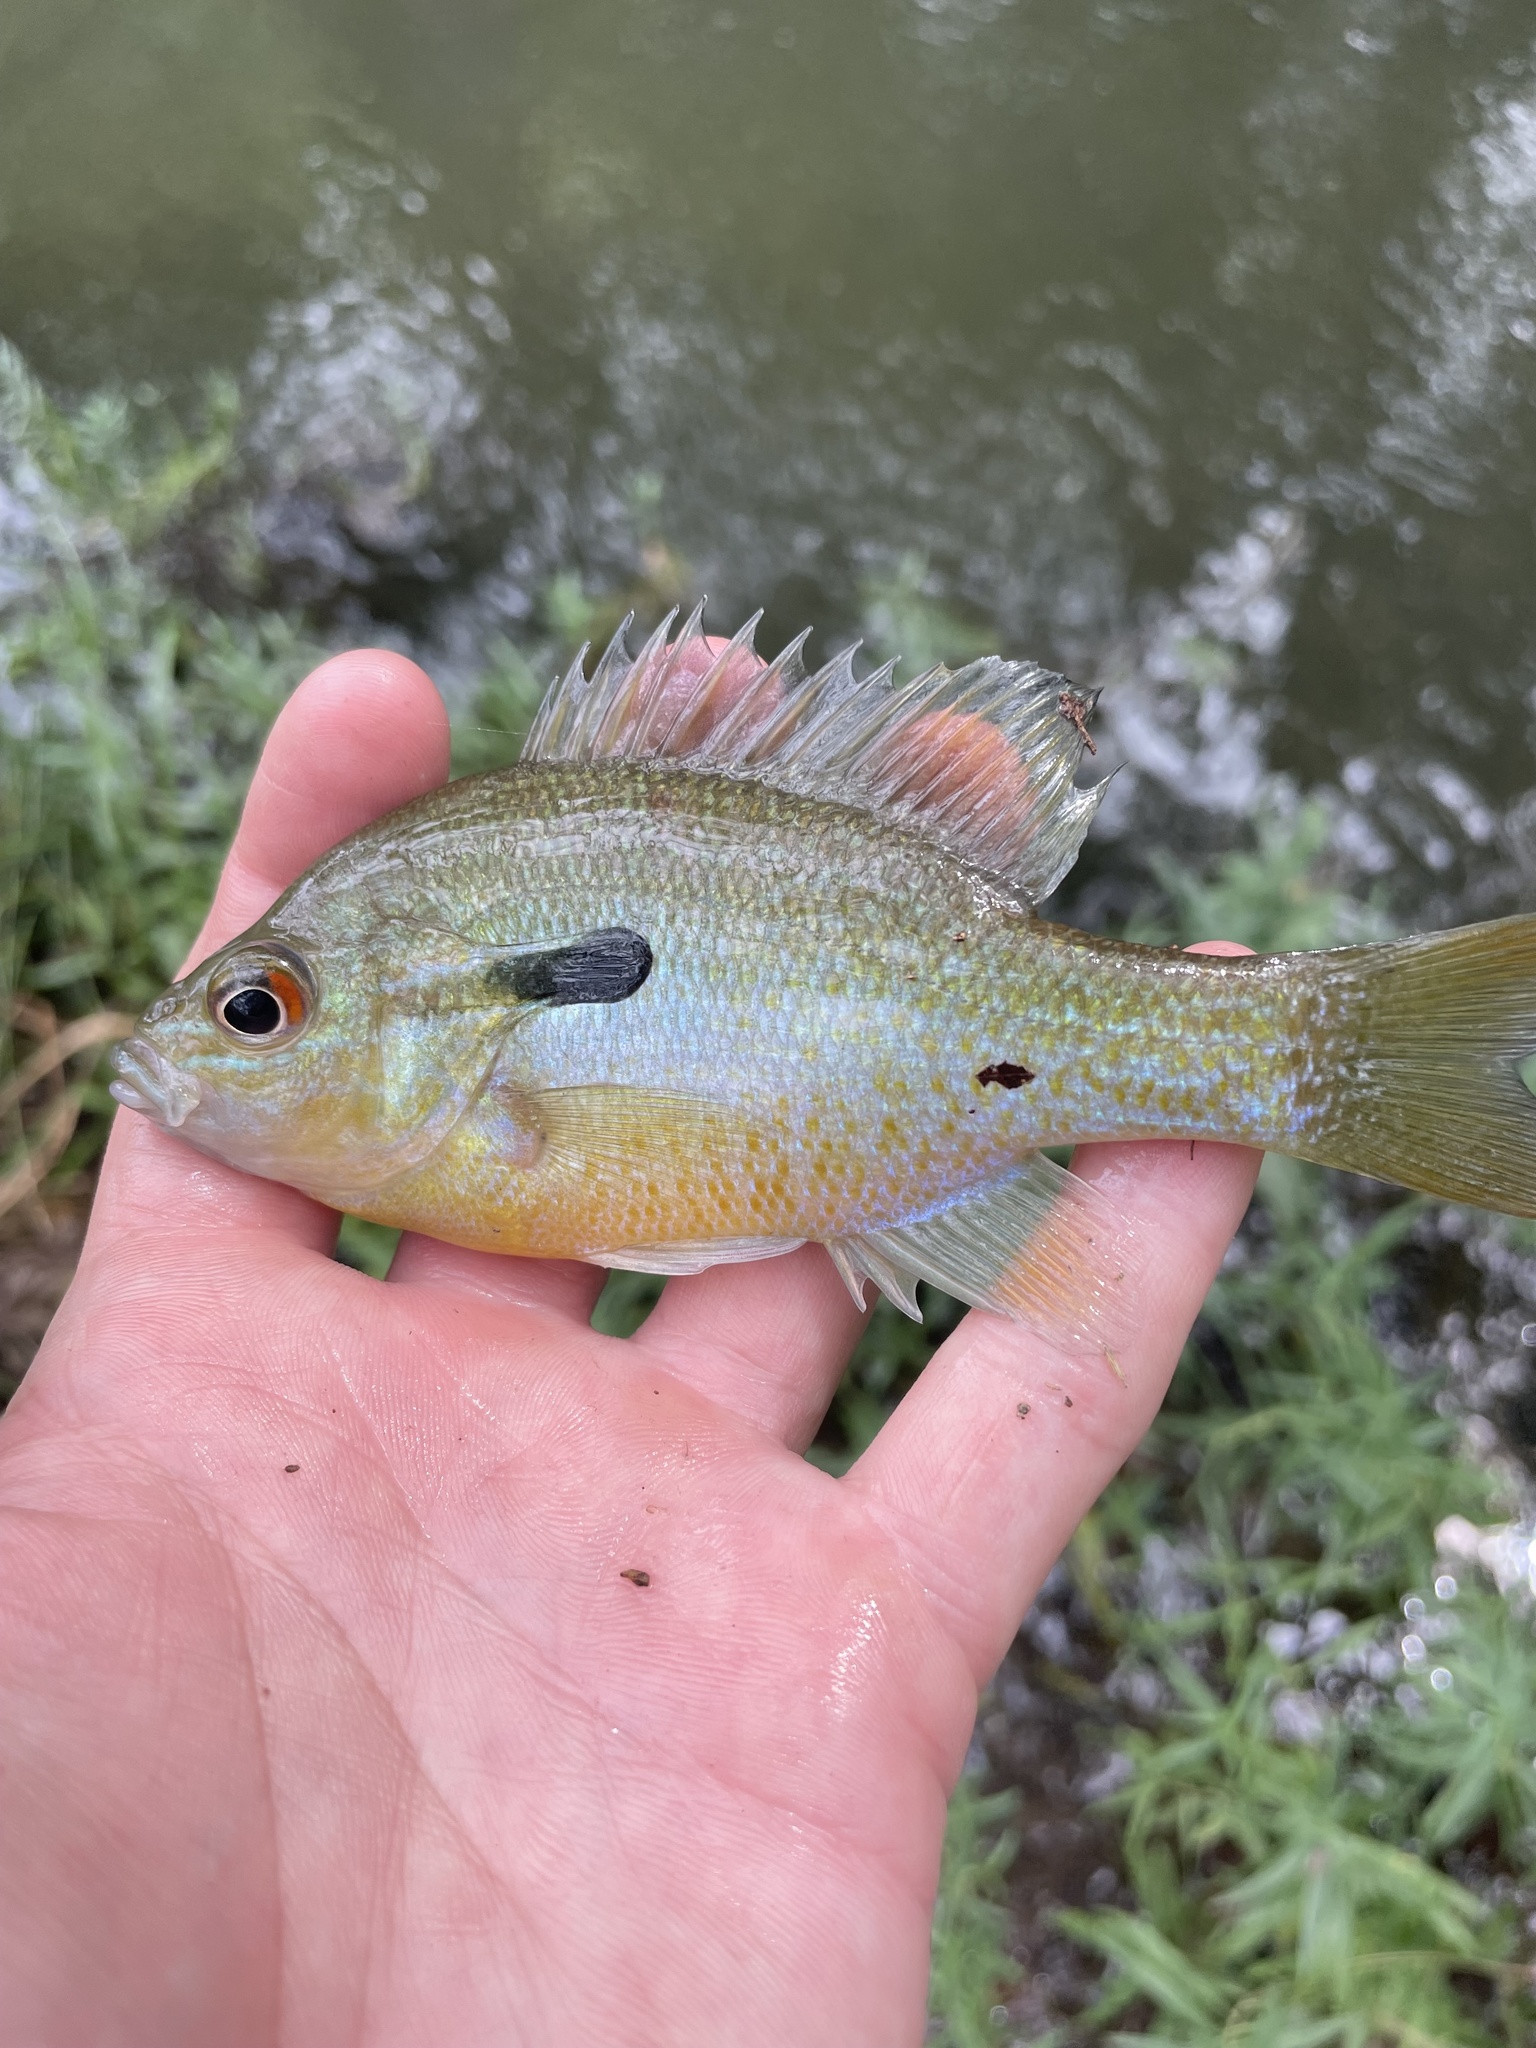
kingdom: Animalia
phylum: Chordata
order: Perciformes
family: Centrarchidae
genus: Lepomis
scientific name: Lepomis auritus
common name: Redbreast sunfish
